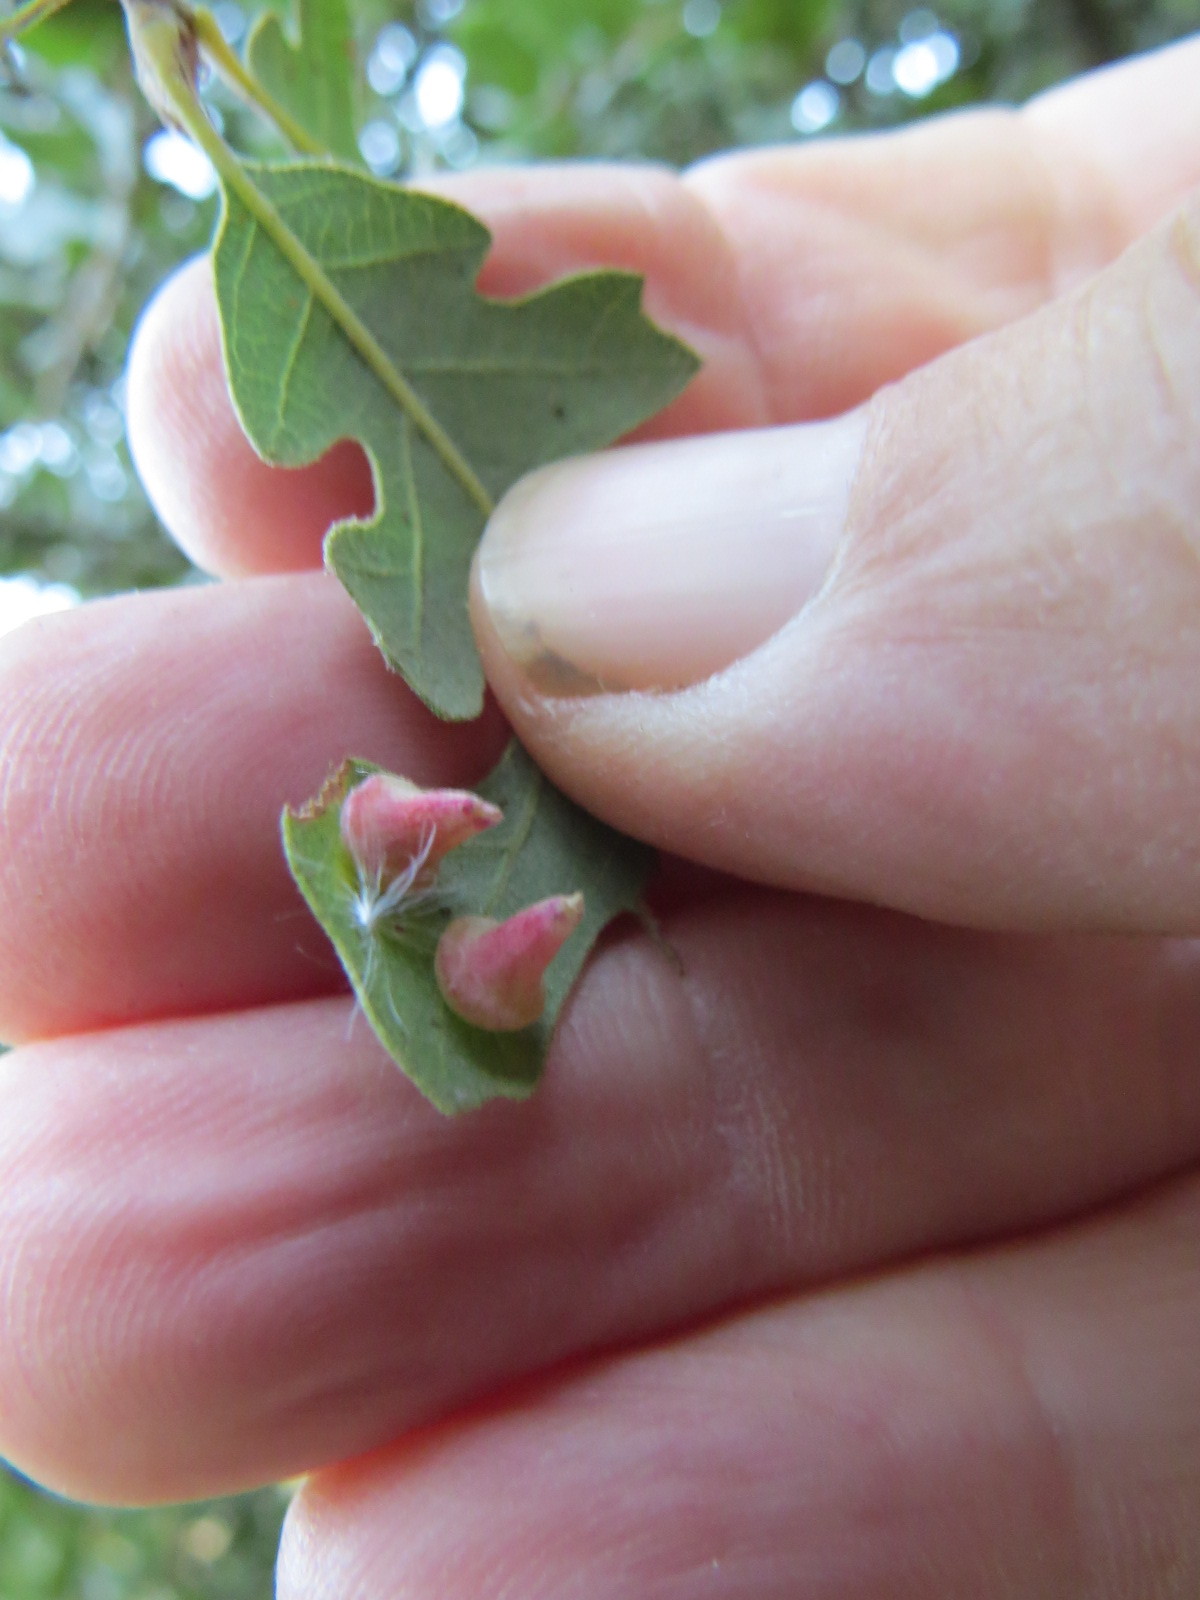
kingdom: Animalia
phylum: Arthropoda
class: Insecta
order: Hymenoptera
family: Cynipidae
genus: Andricus
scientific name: Andricus
